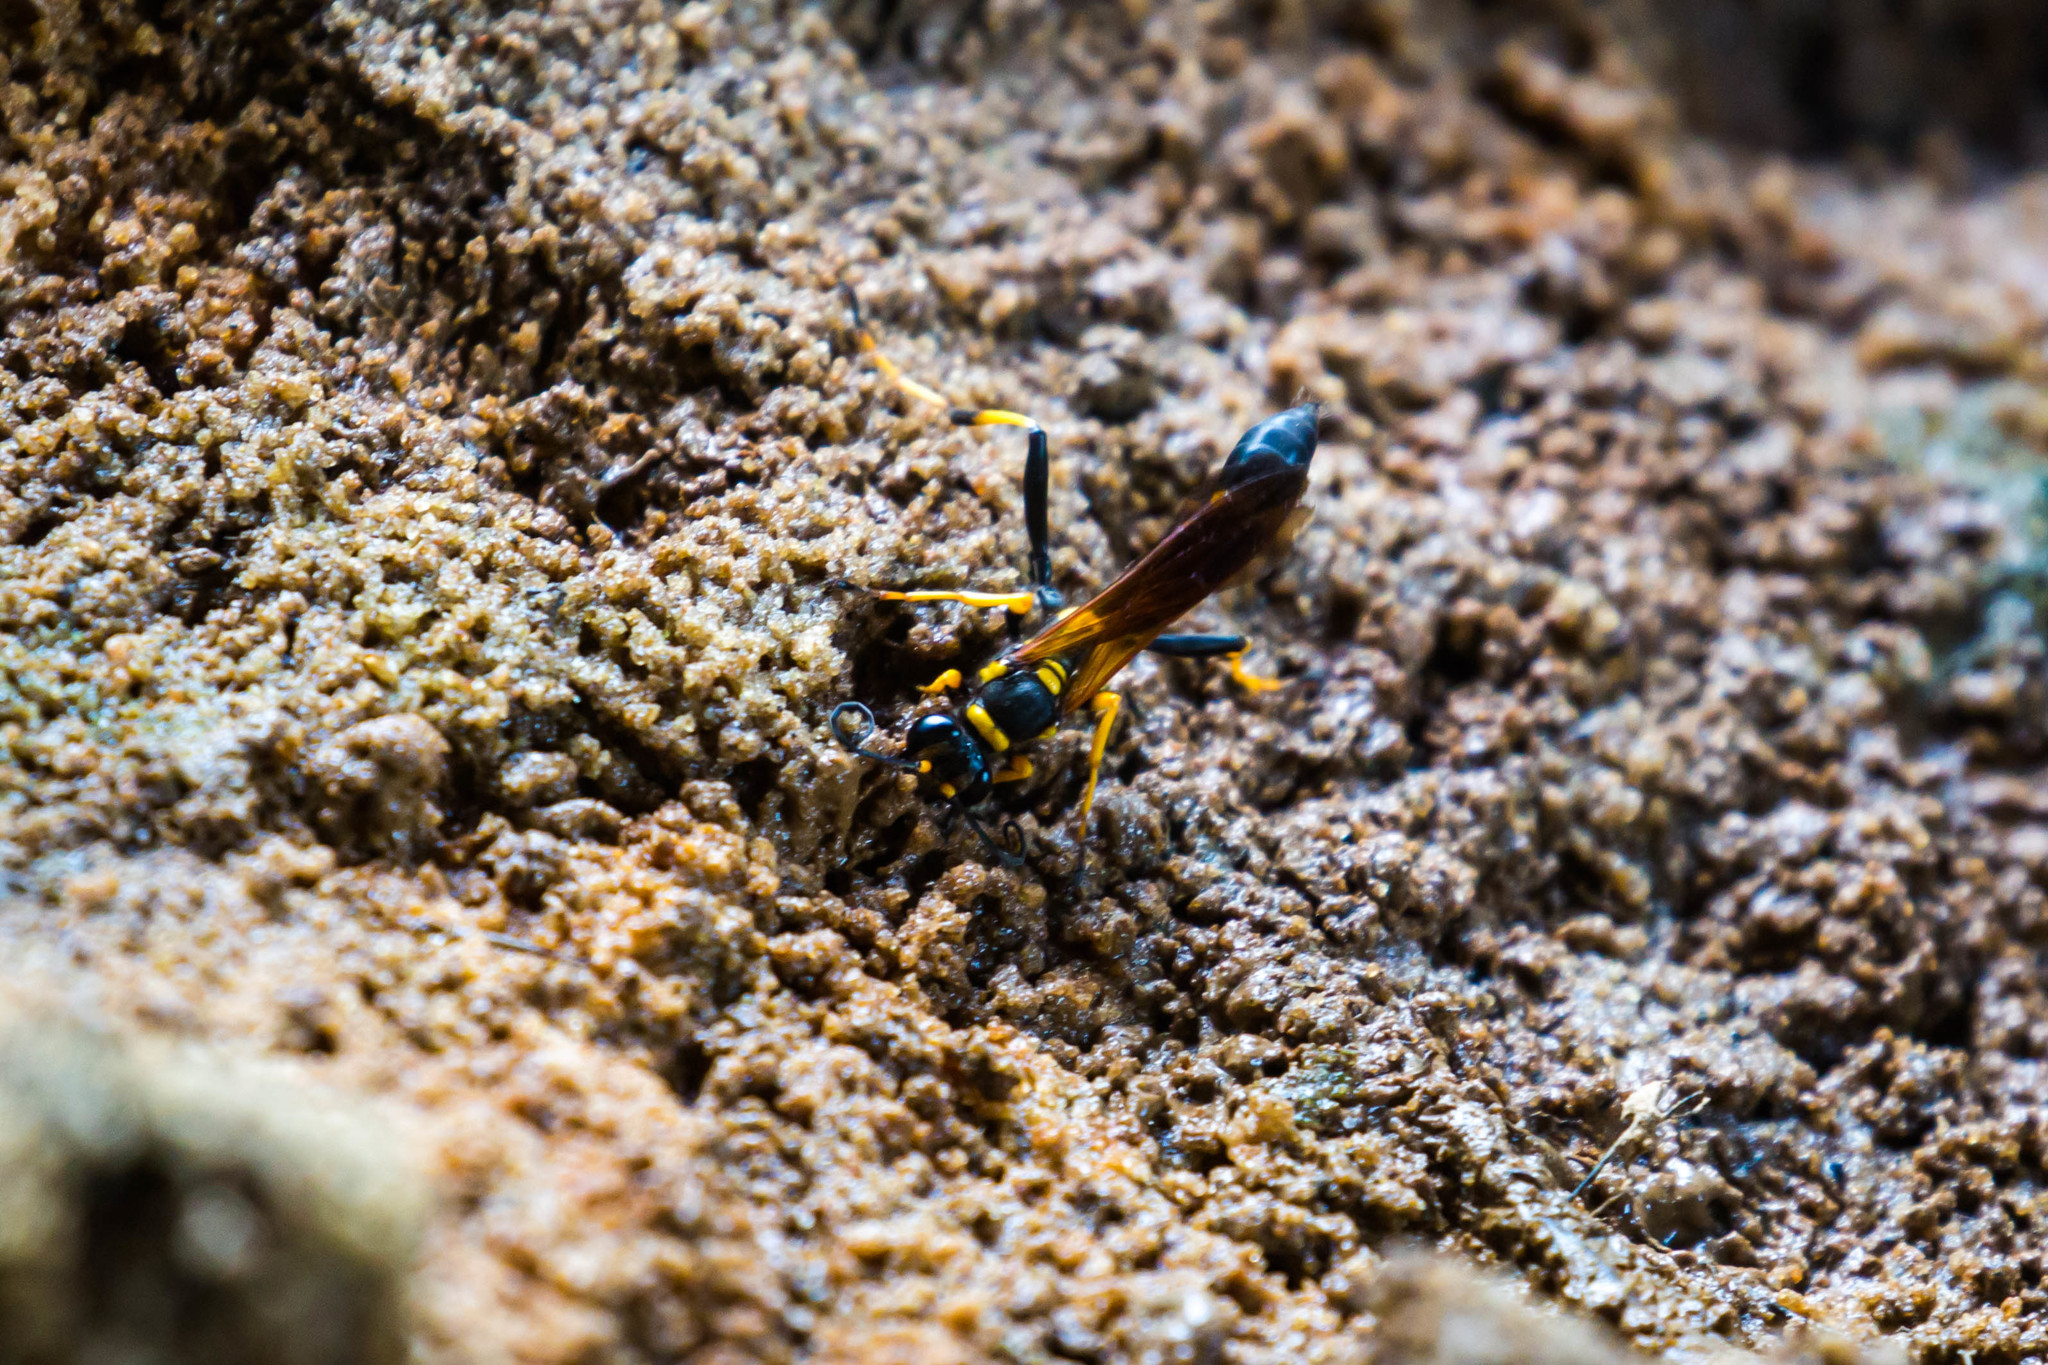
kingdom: Animalia
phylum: Arthropoda
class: Insecta
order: Hymenoptera
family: Sphecidae
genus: Sceliphron
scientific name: Sceliphron caementarium
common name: Mud dauber
